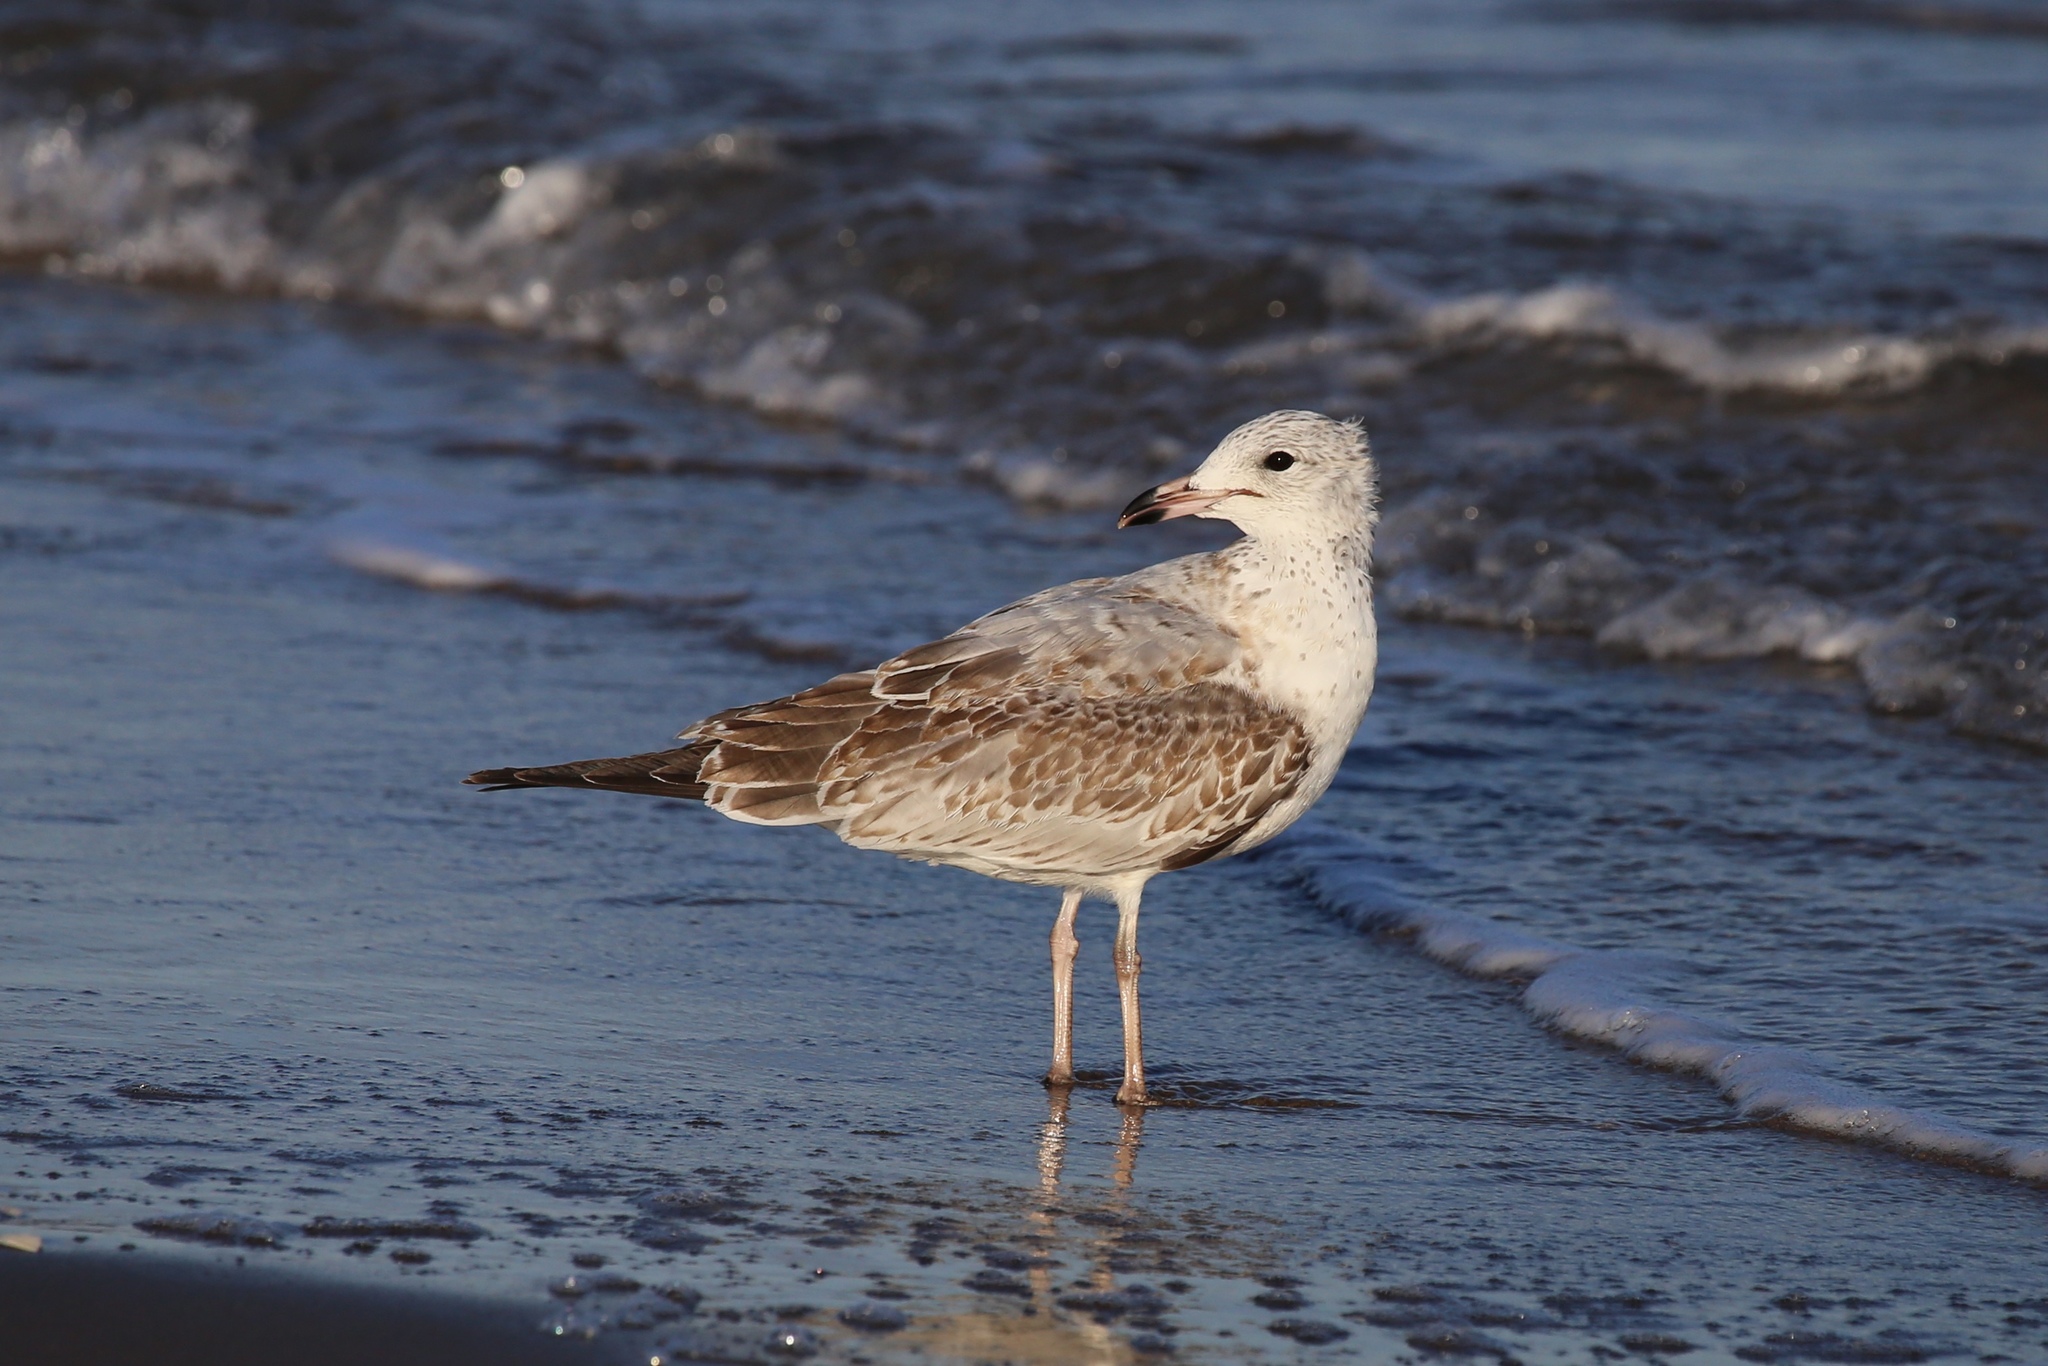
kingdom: Animalia
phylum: Chordata
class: Aves
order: Charadriiformes
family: Laridae
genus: Larus
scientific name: Larus delawarensis
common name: Ring-billed gull
